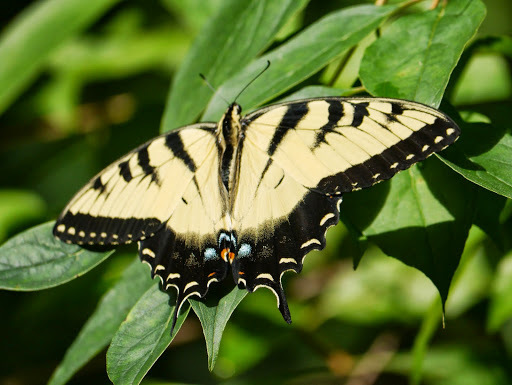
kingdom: Animalia
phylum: Arthropoda
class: Insecta
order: Lepidoptera
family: Papilionidae
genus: Papilio
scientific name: Papilio glaucus
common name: Tiger swallowtail
